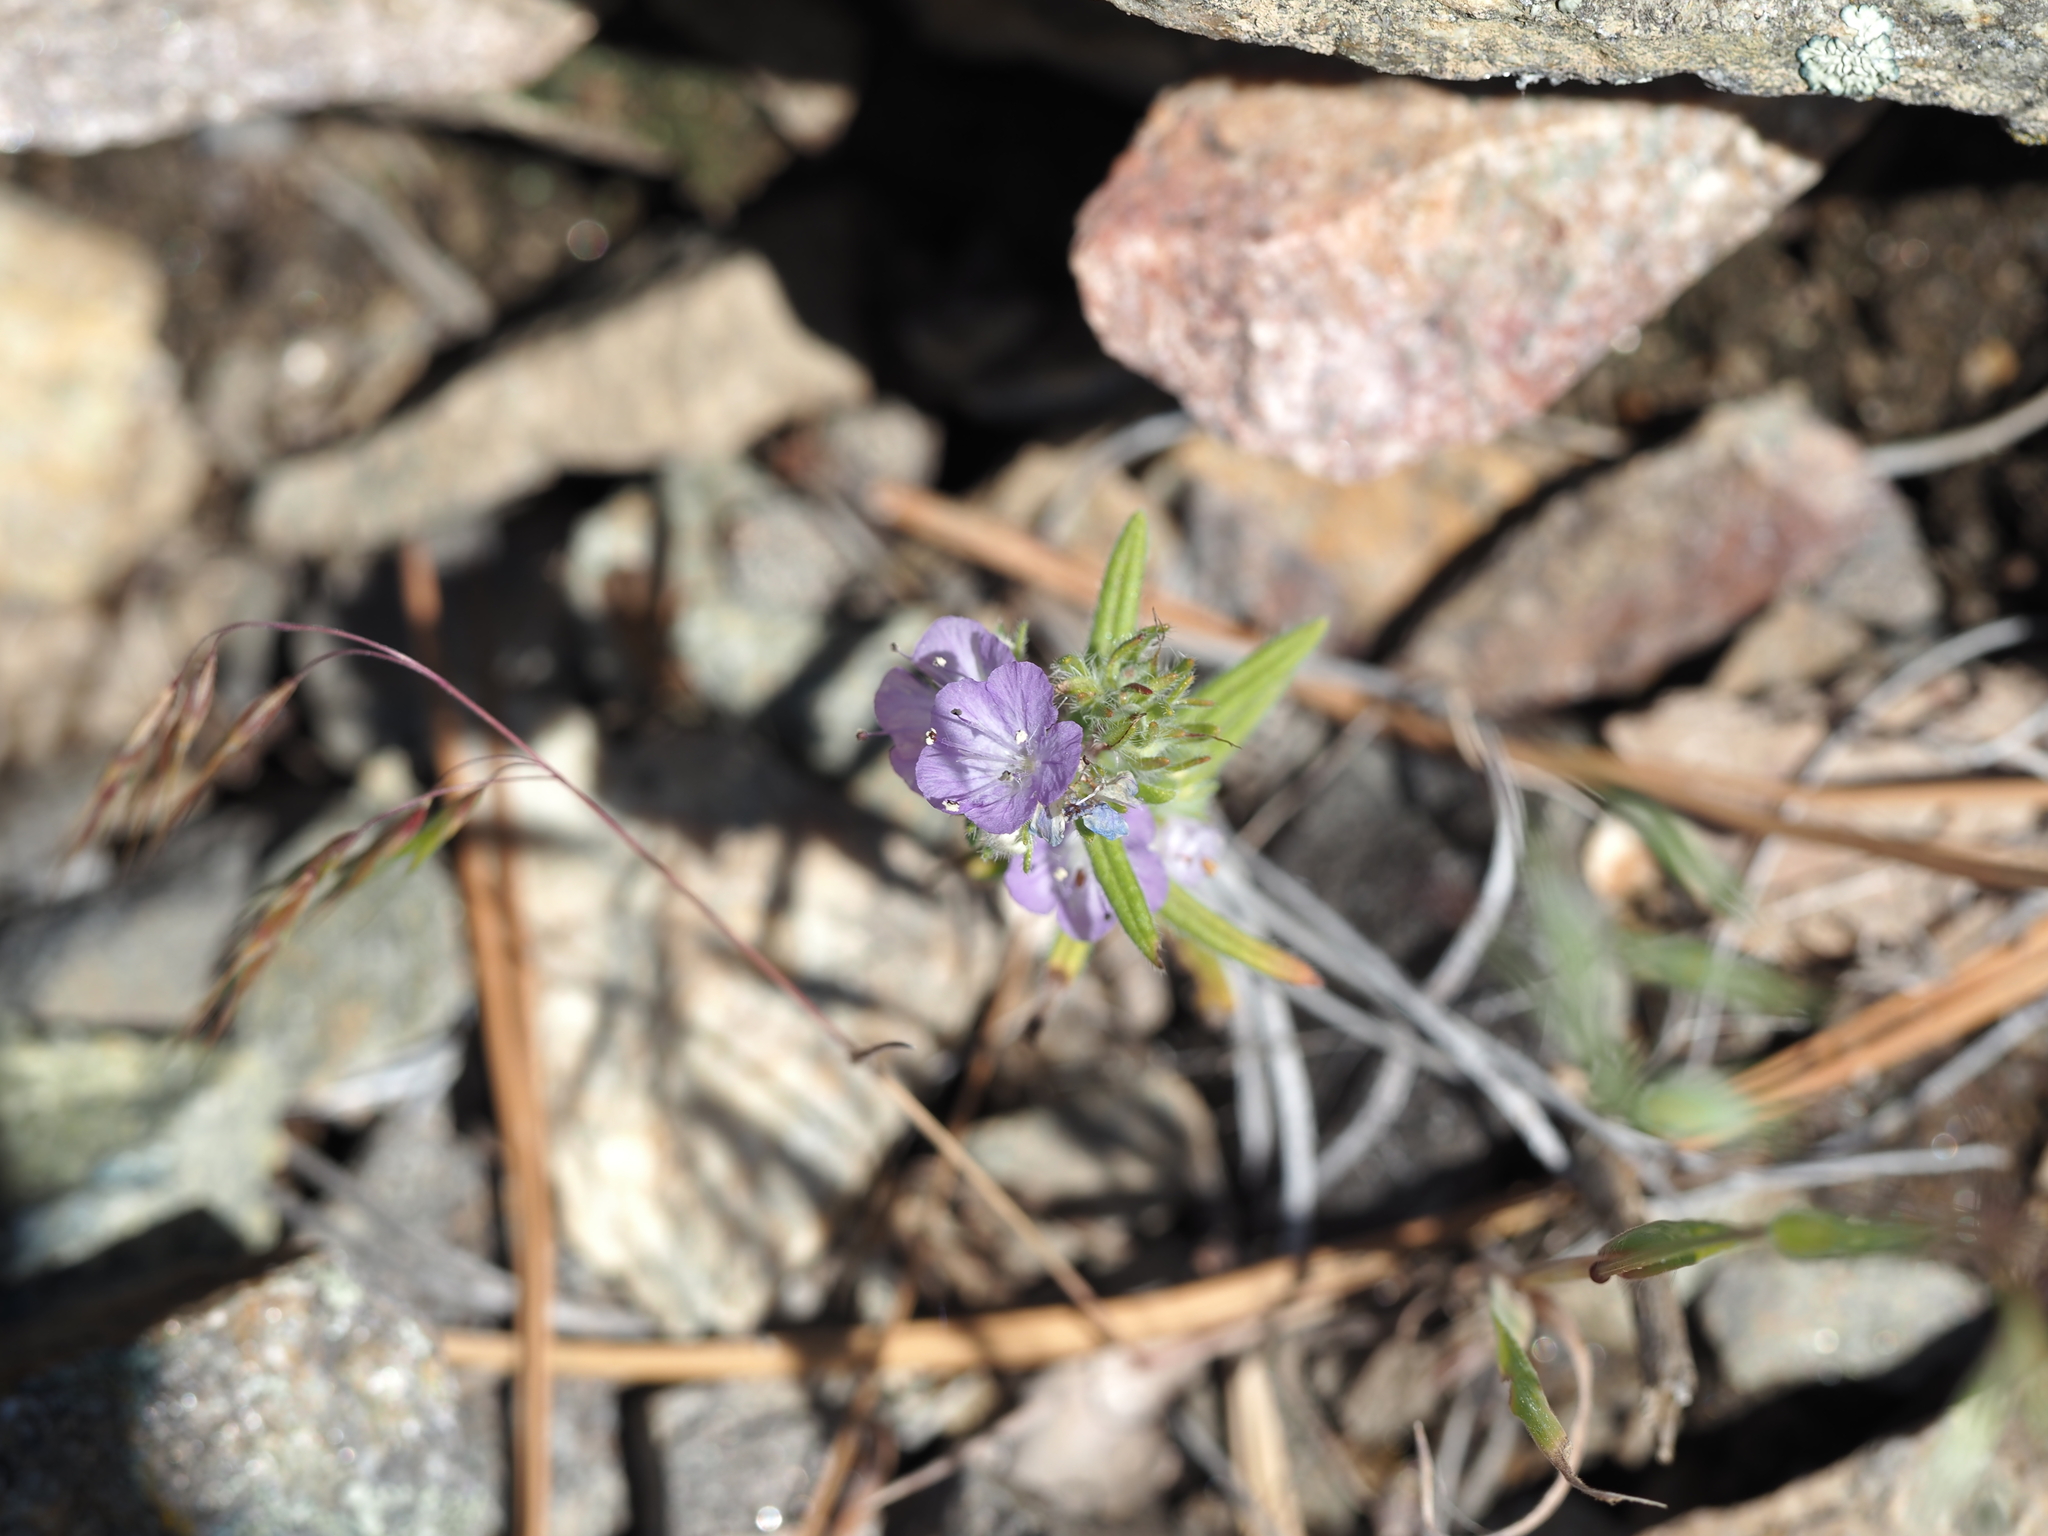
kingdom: Plantae
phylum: Tracheophyta
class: Magnoliopsida
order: Boraginales
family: Hydrophyllaceae
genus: Phacelia
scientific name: Phacelia linearis
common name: Linear-leaved phacelia
